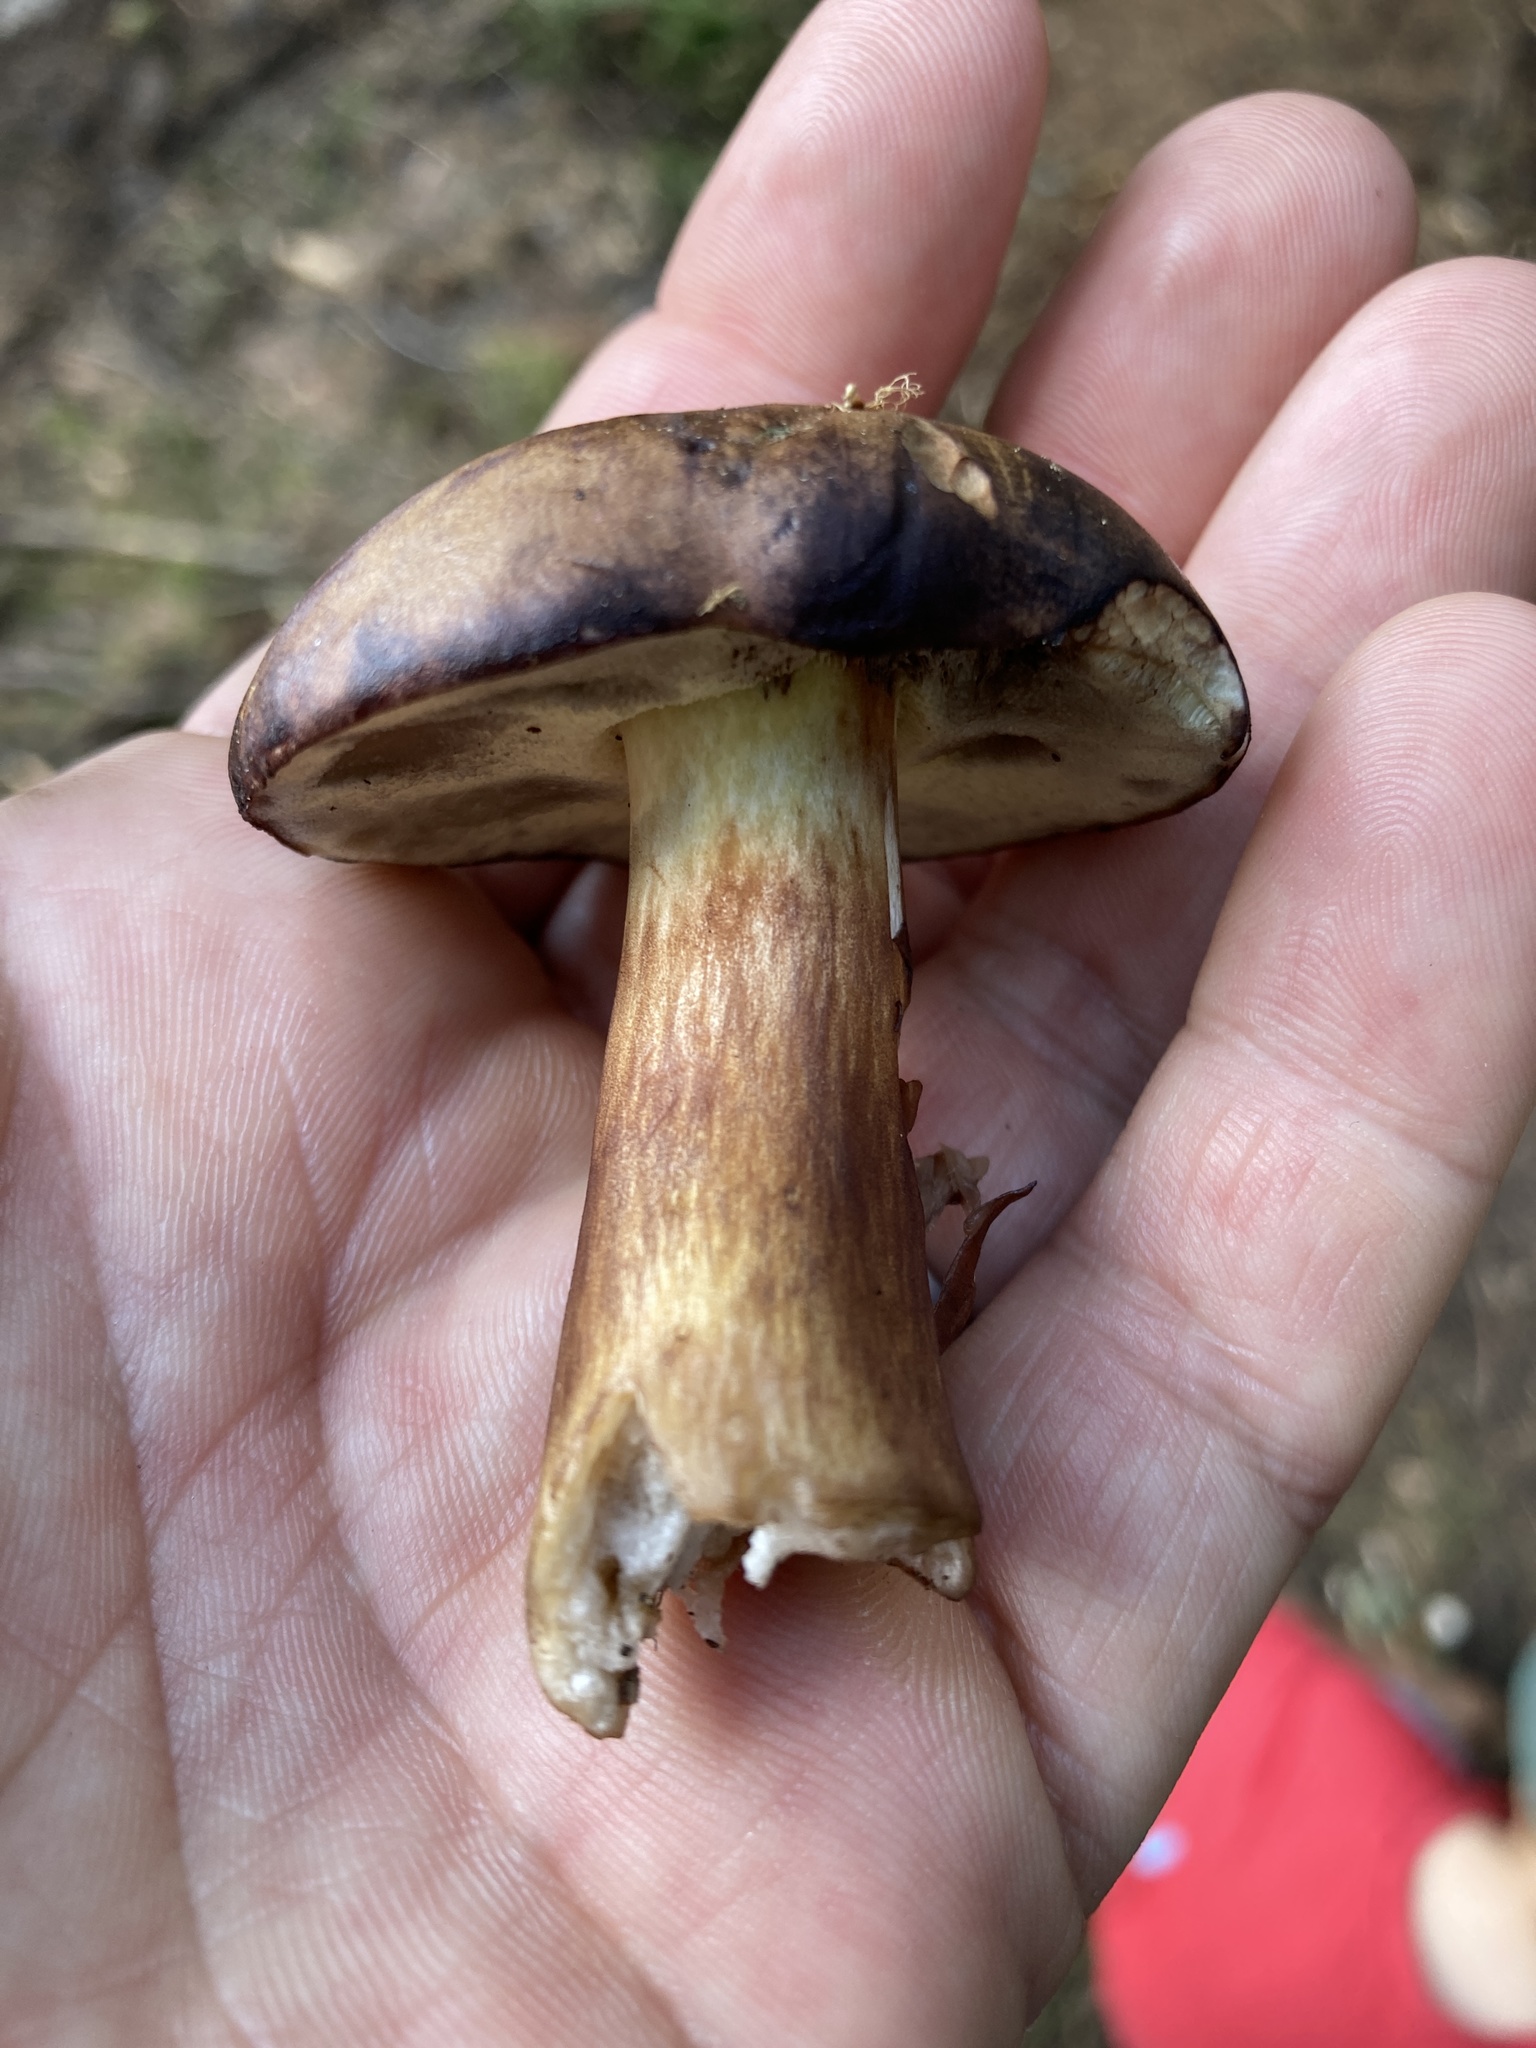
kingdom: Fungi
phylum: Basidiomycota
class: Agaricomycetes
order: Boletales
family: Boletaceae
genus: Imleria
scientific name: Imleria badia
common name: Bay bolete
